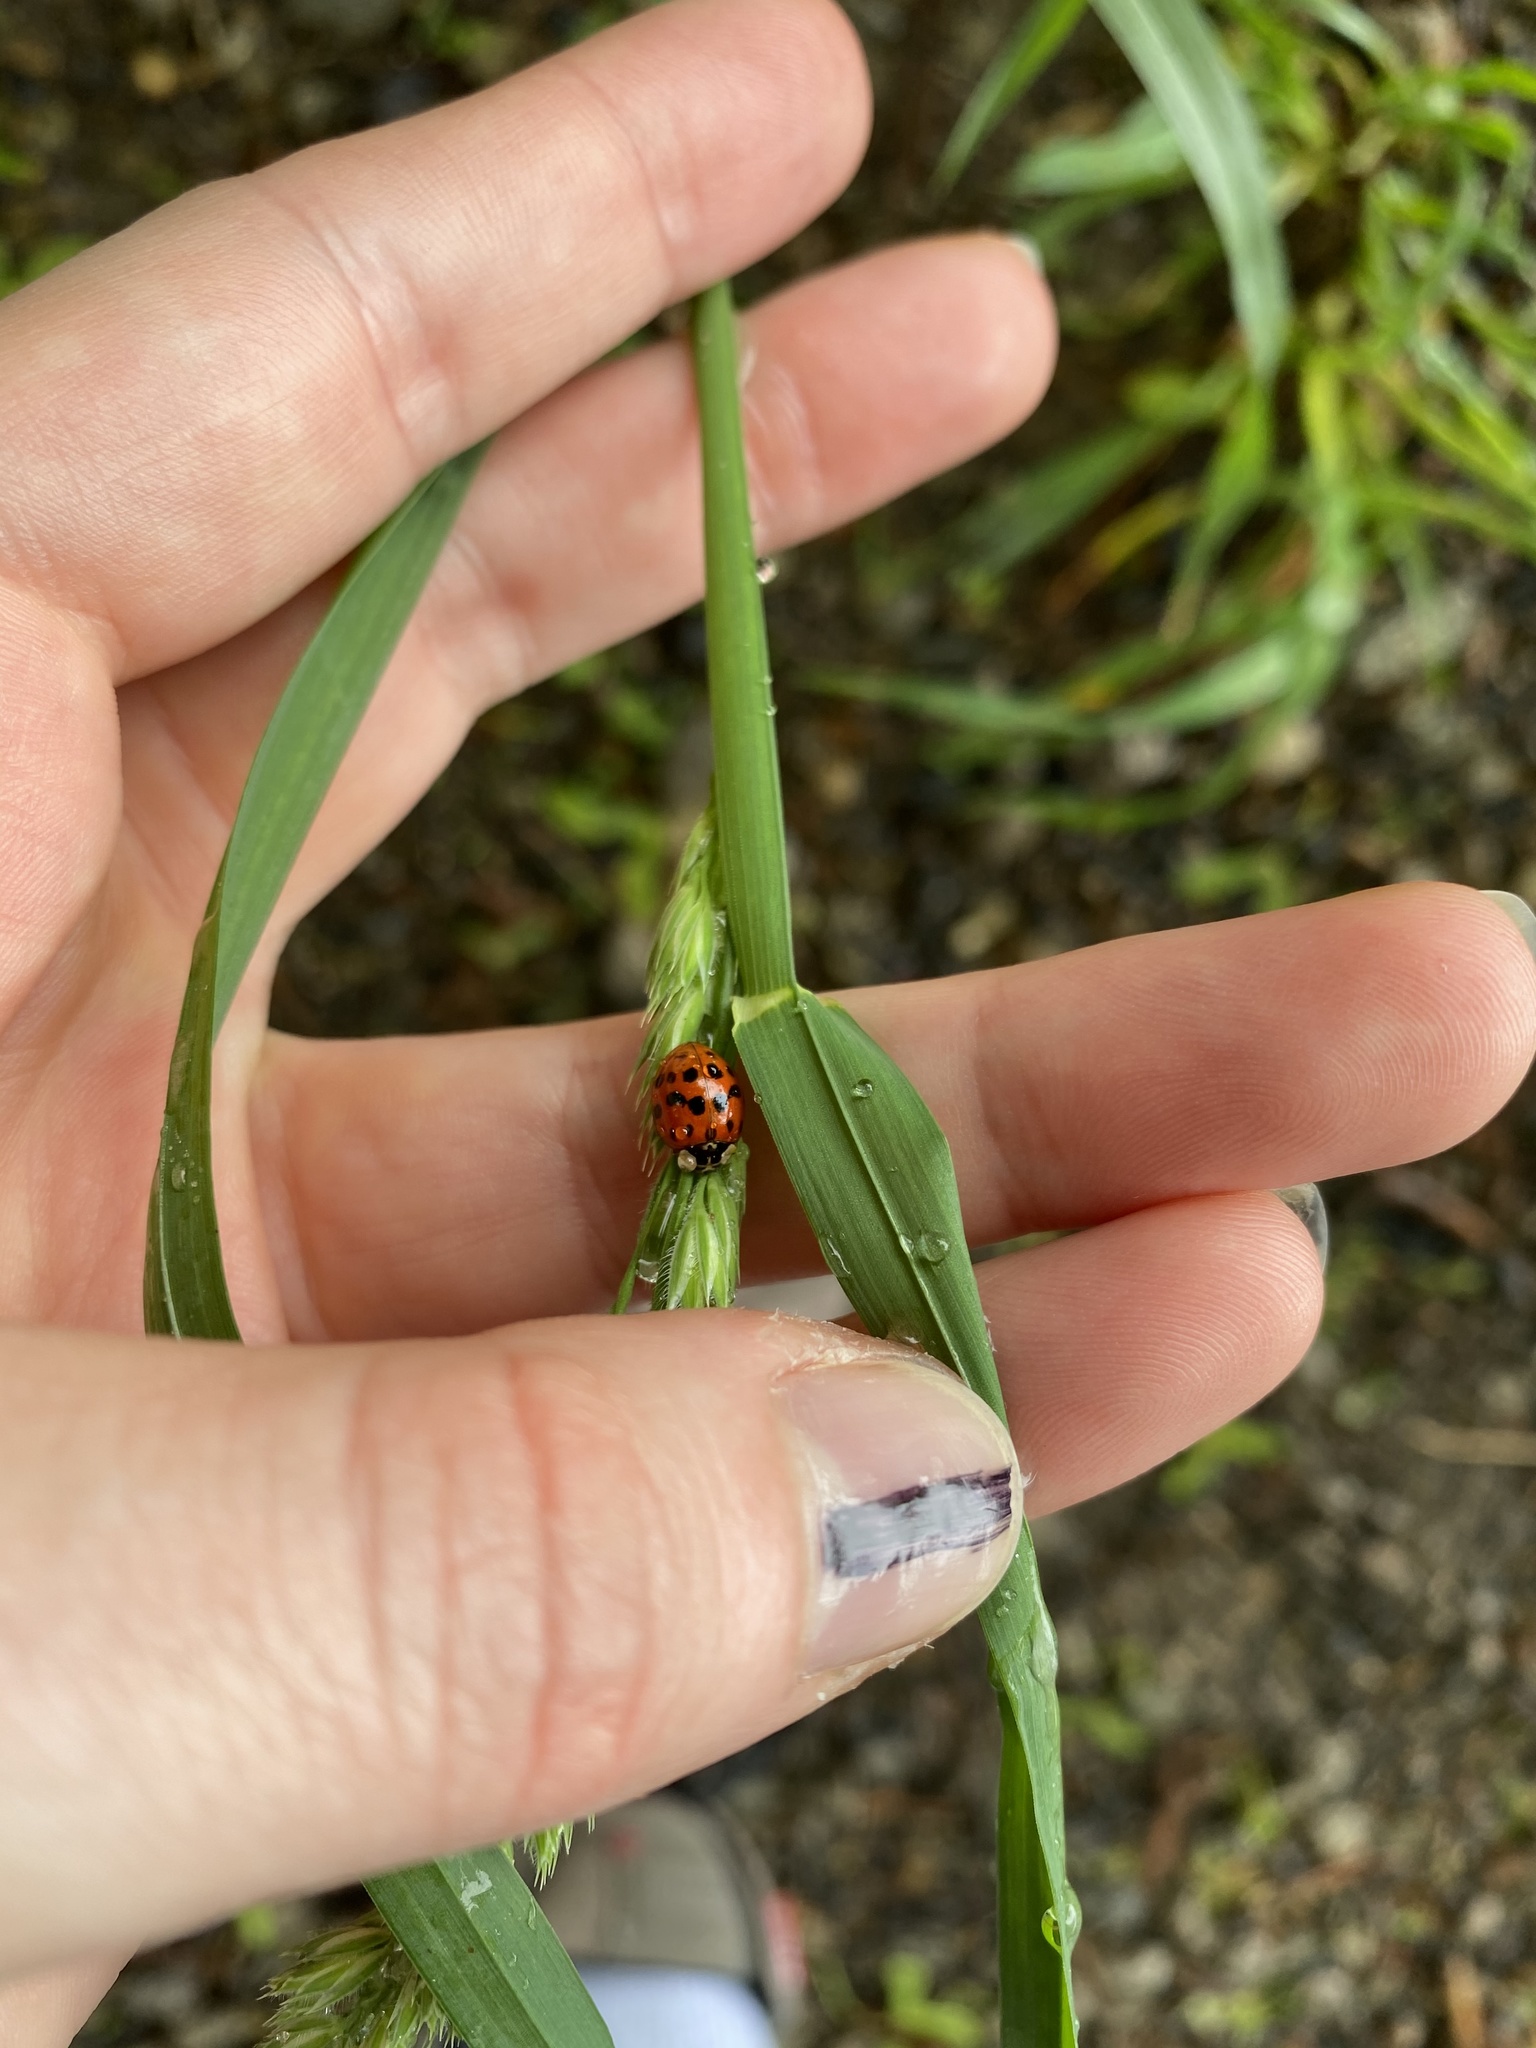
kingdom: Animalia
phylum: Arthropoda
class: Insecta
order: Coleoptera
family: Coccinellidae
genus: Harmonia
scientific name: Harmonia axyridis
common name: Harlequin ladybird
